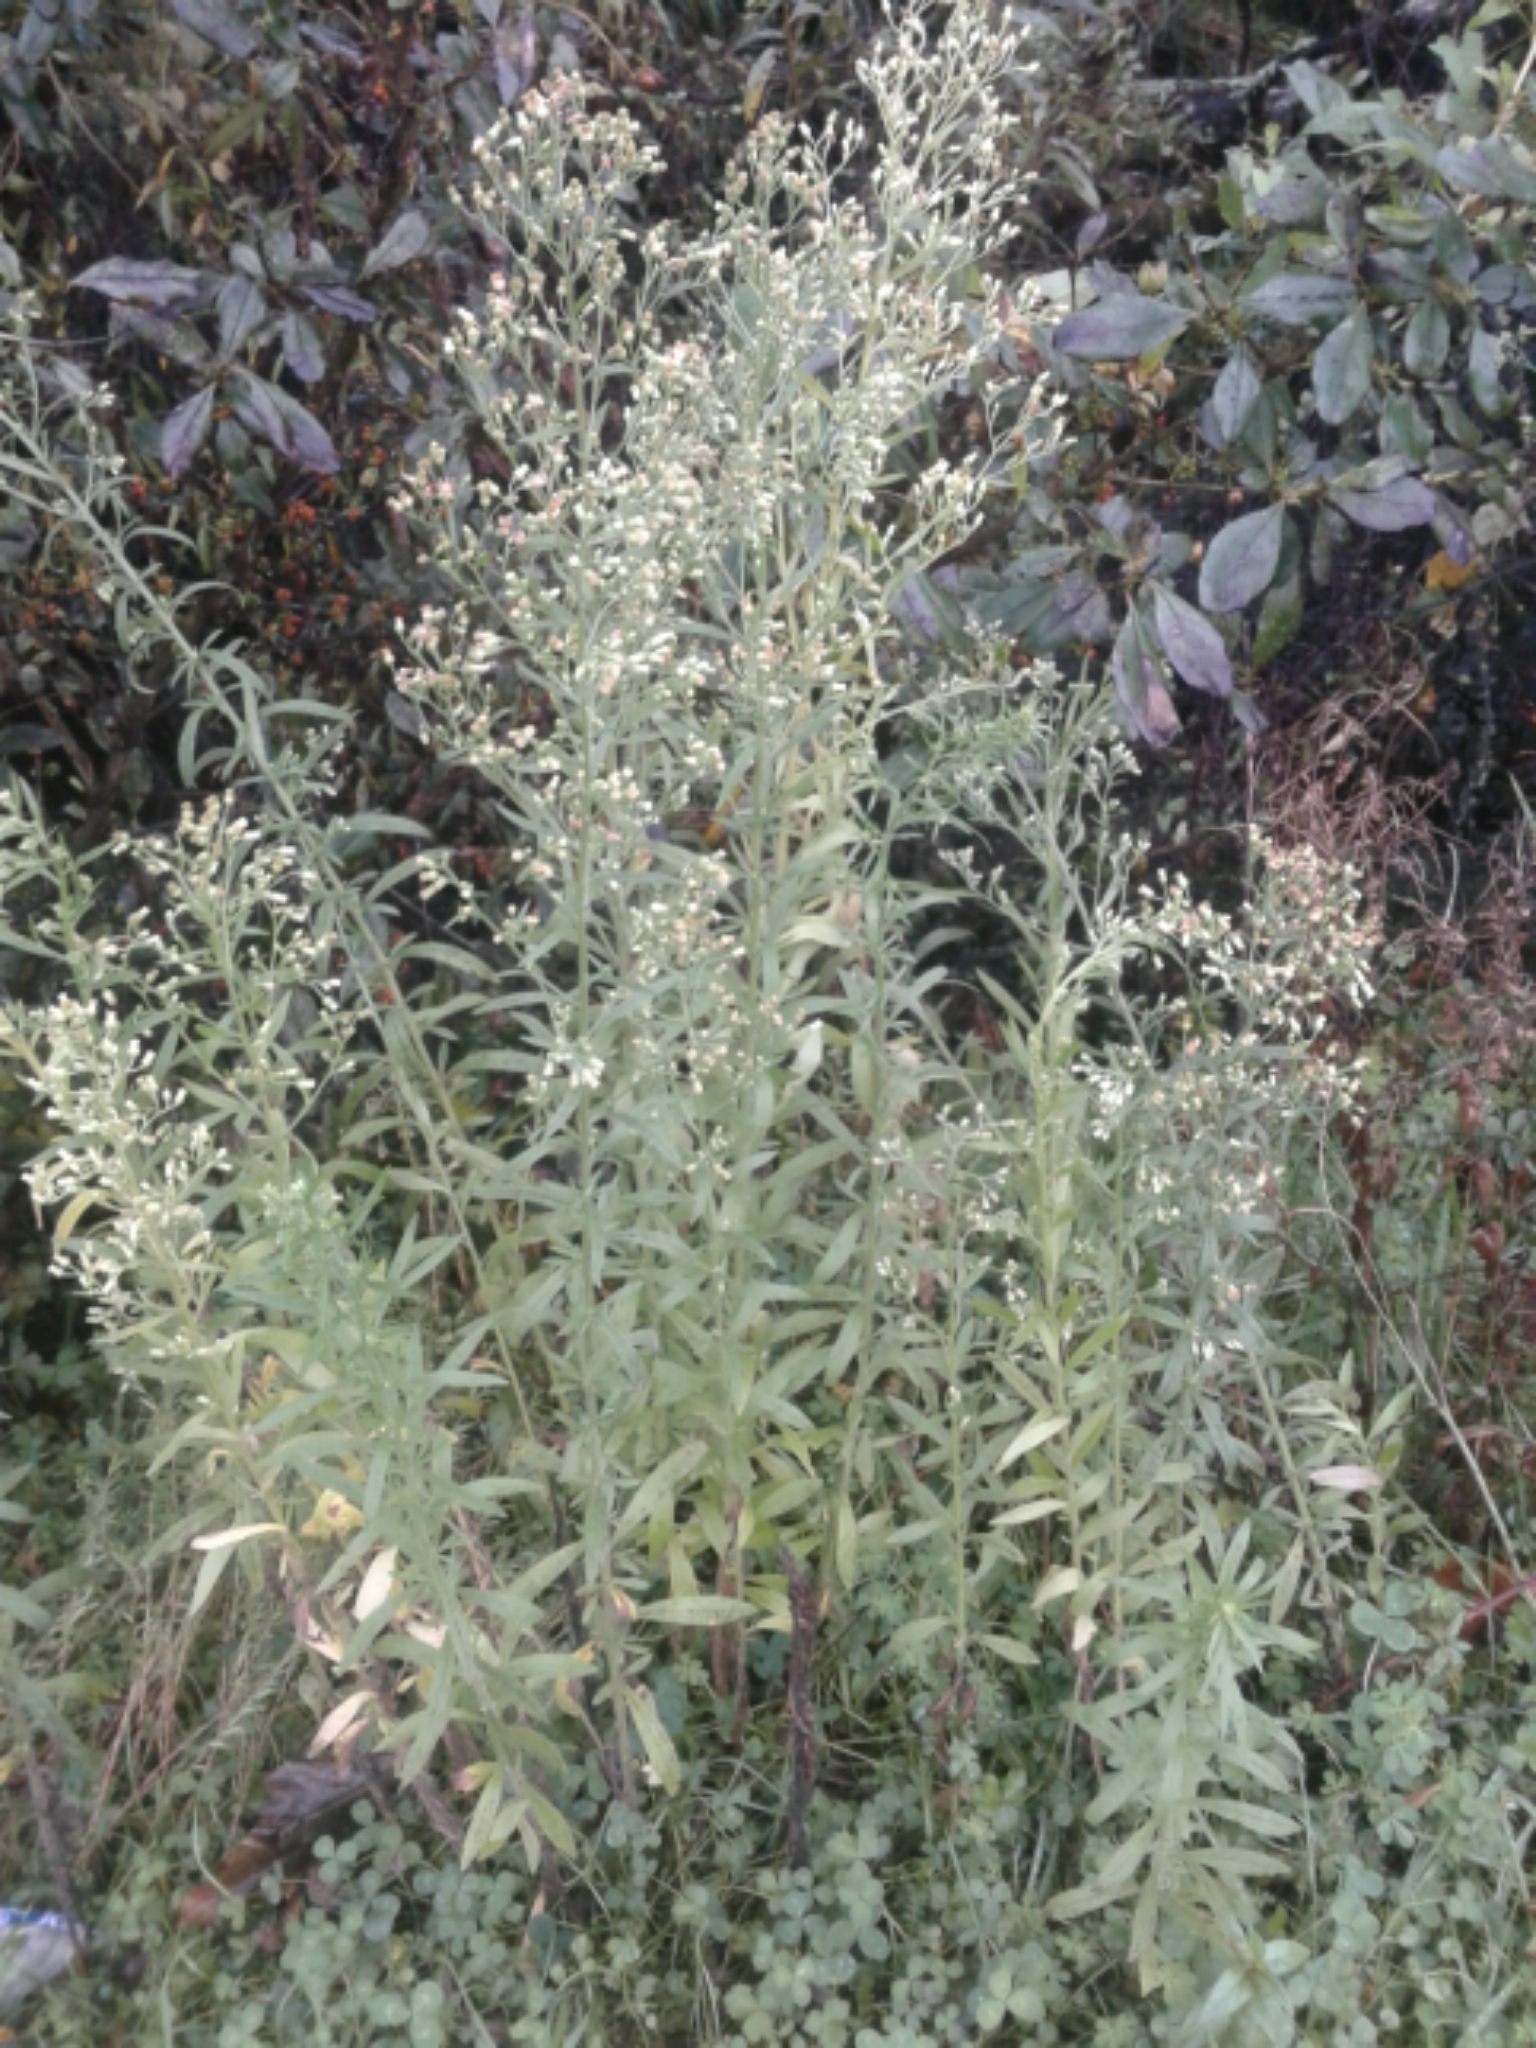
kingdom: Plantae
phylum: Tracheophyta
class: Magnoliopsida
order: Asterales
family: Asteraceae
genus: Erigeron
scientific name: Erigeron sumatrensis
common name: Daisy
